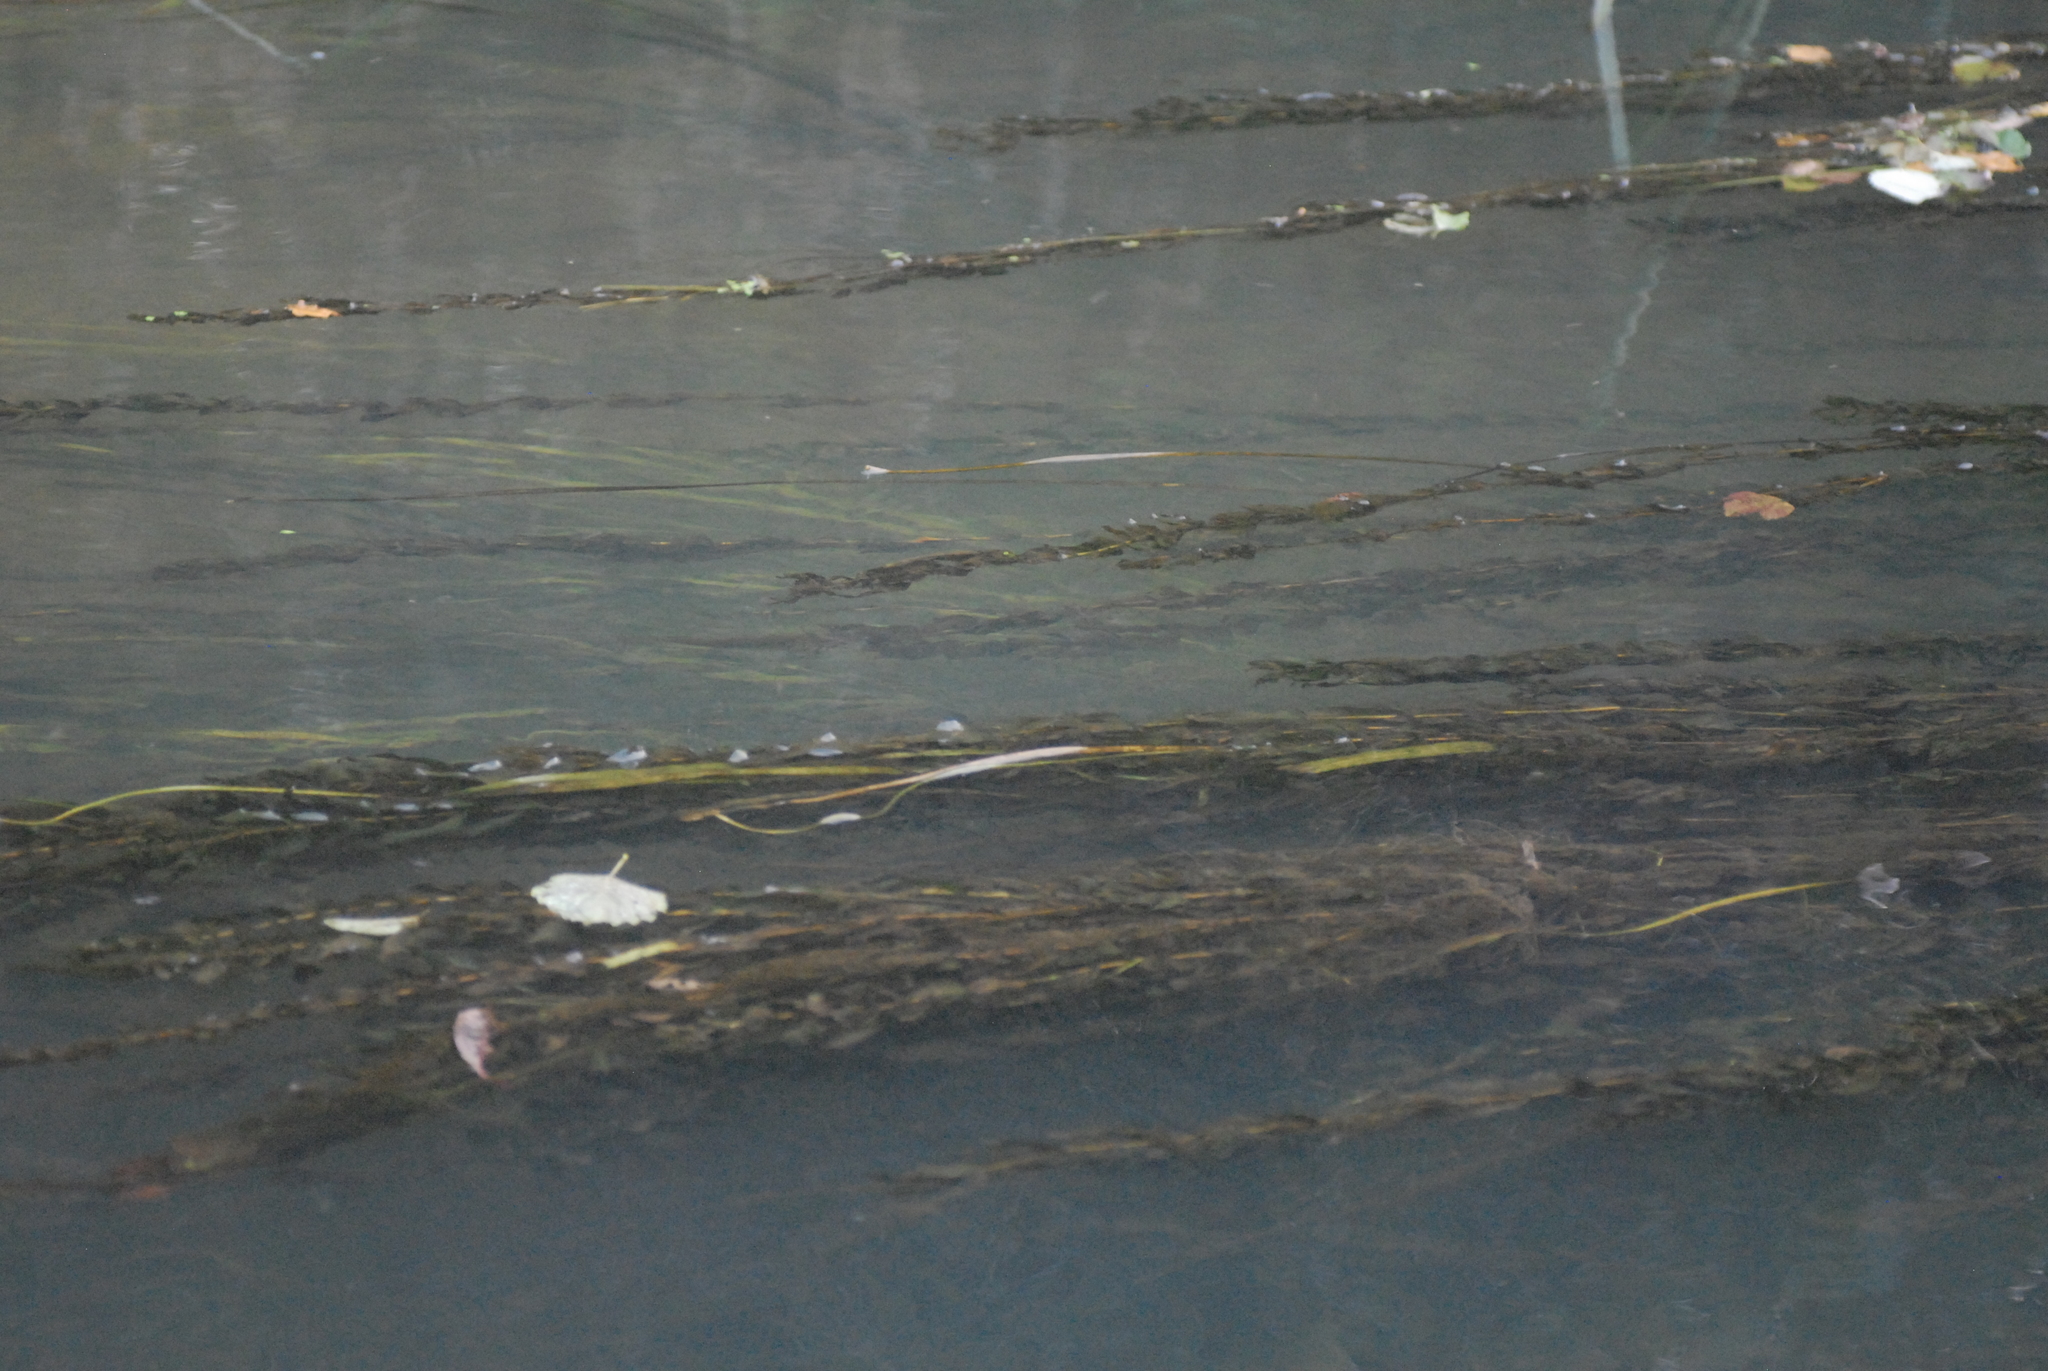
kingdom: Plantae
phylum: Tracheophyta
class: Liliopsida
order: Alismatales
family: Potamogetonaceae
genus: Potamogeton
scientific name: Potamogeton perfoliatus
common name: Perfoliate pondweed
